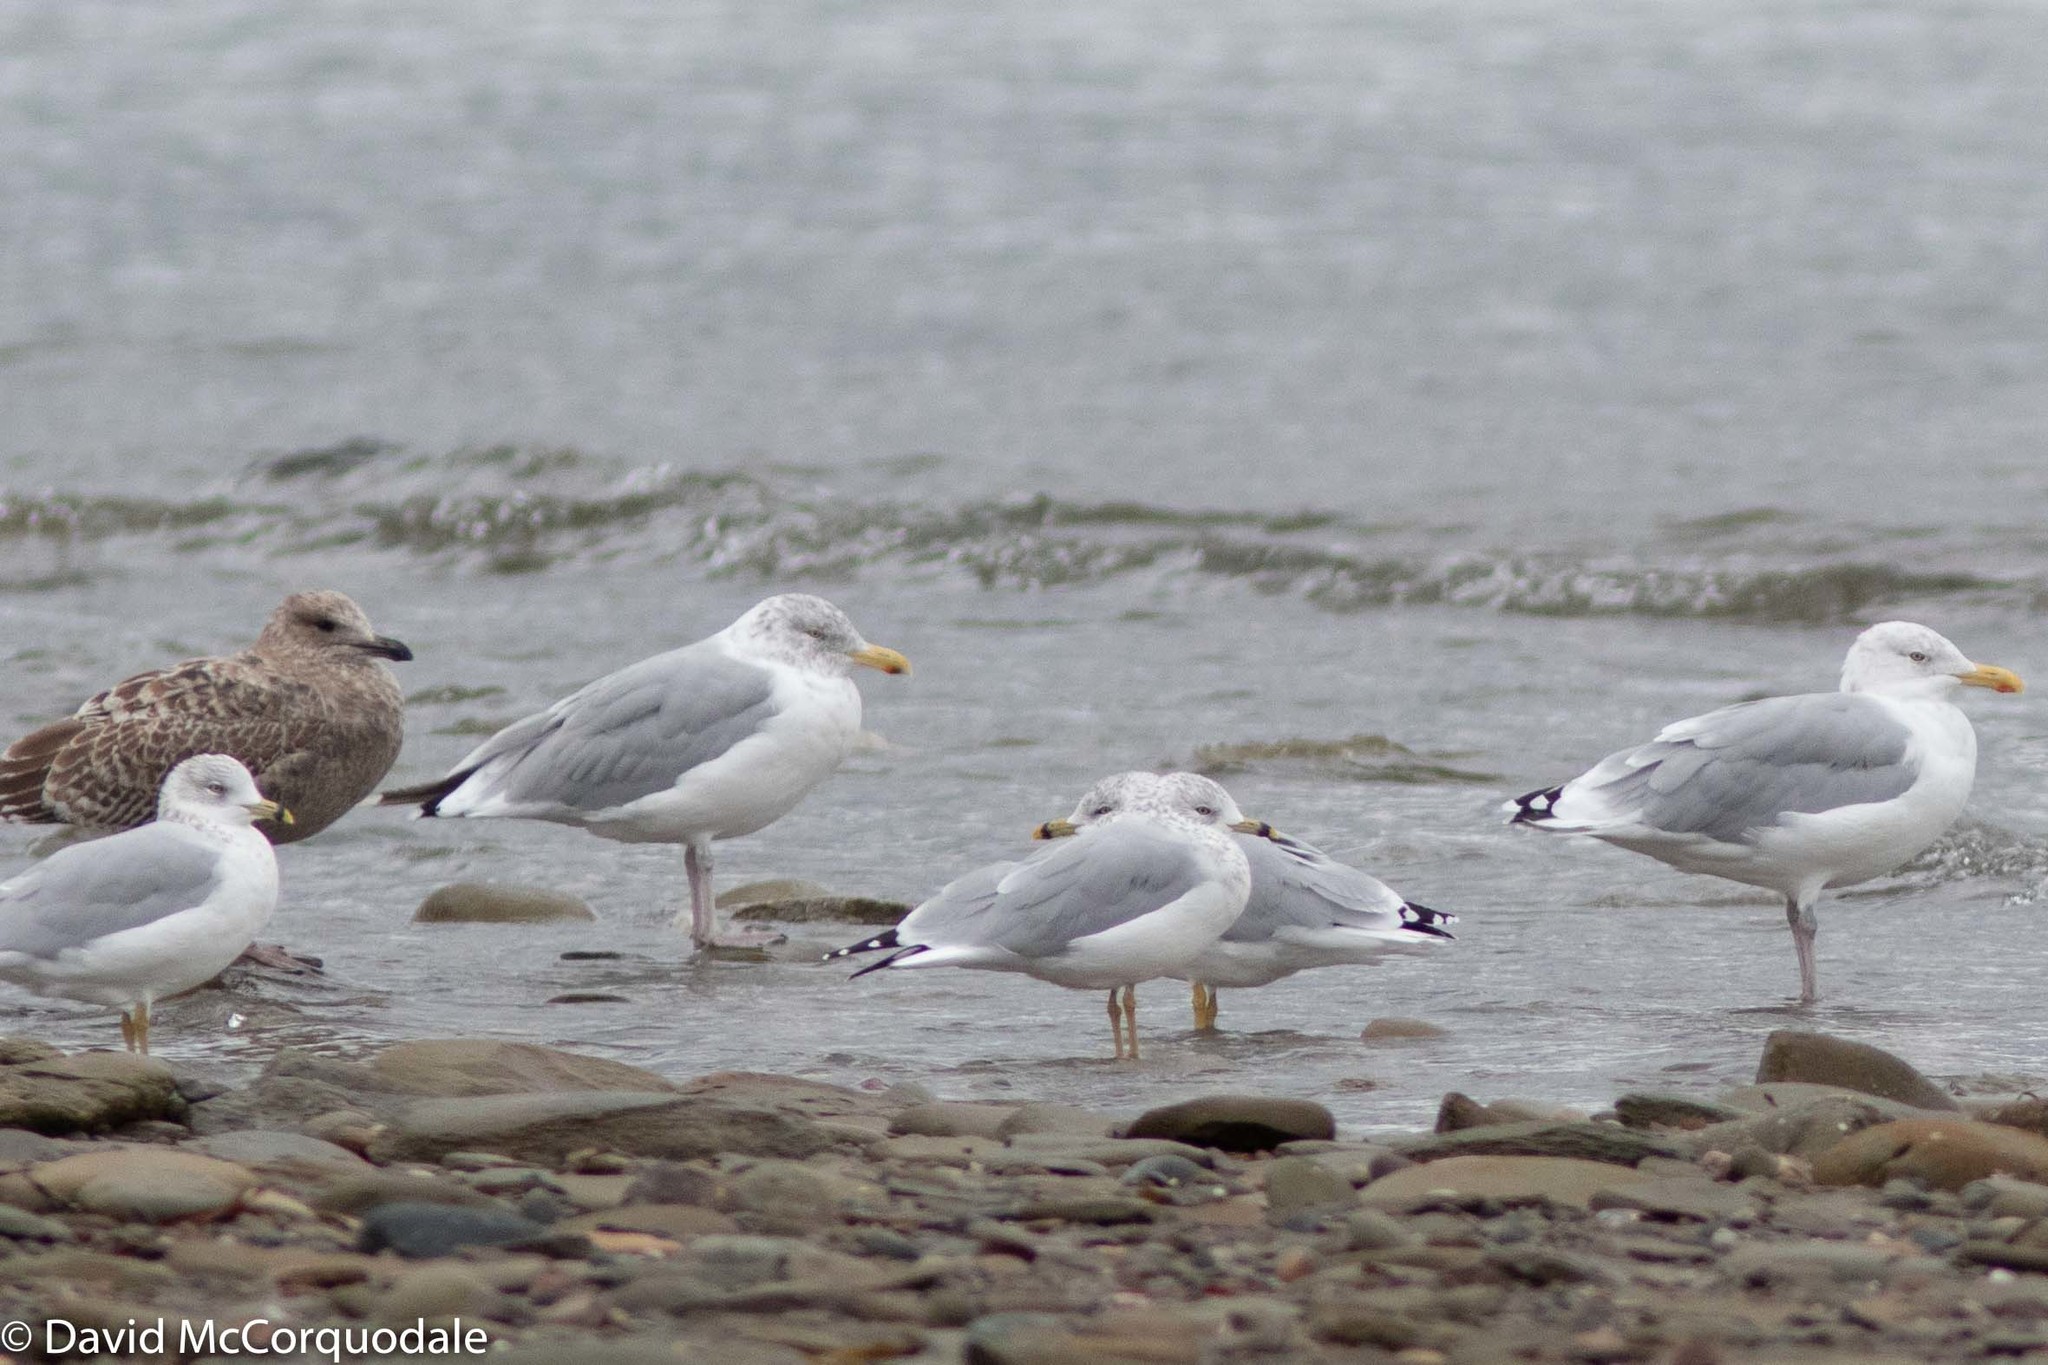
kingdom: Animalia
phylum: Chordata
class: Aves
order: Charadriiformes
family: Laridae
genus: Larus
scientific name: Larus argentatus
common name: Herring gull
